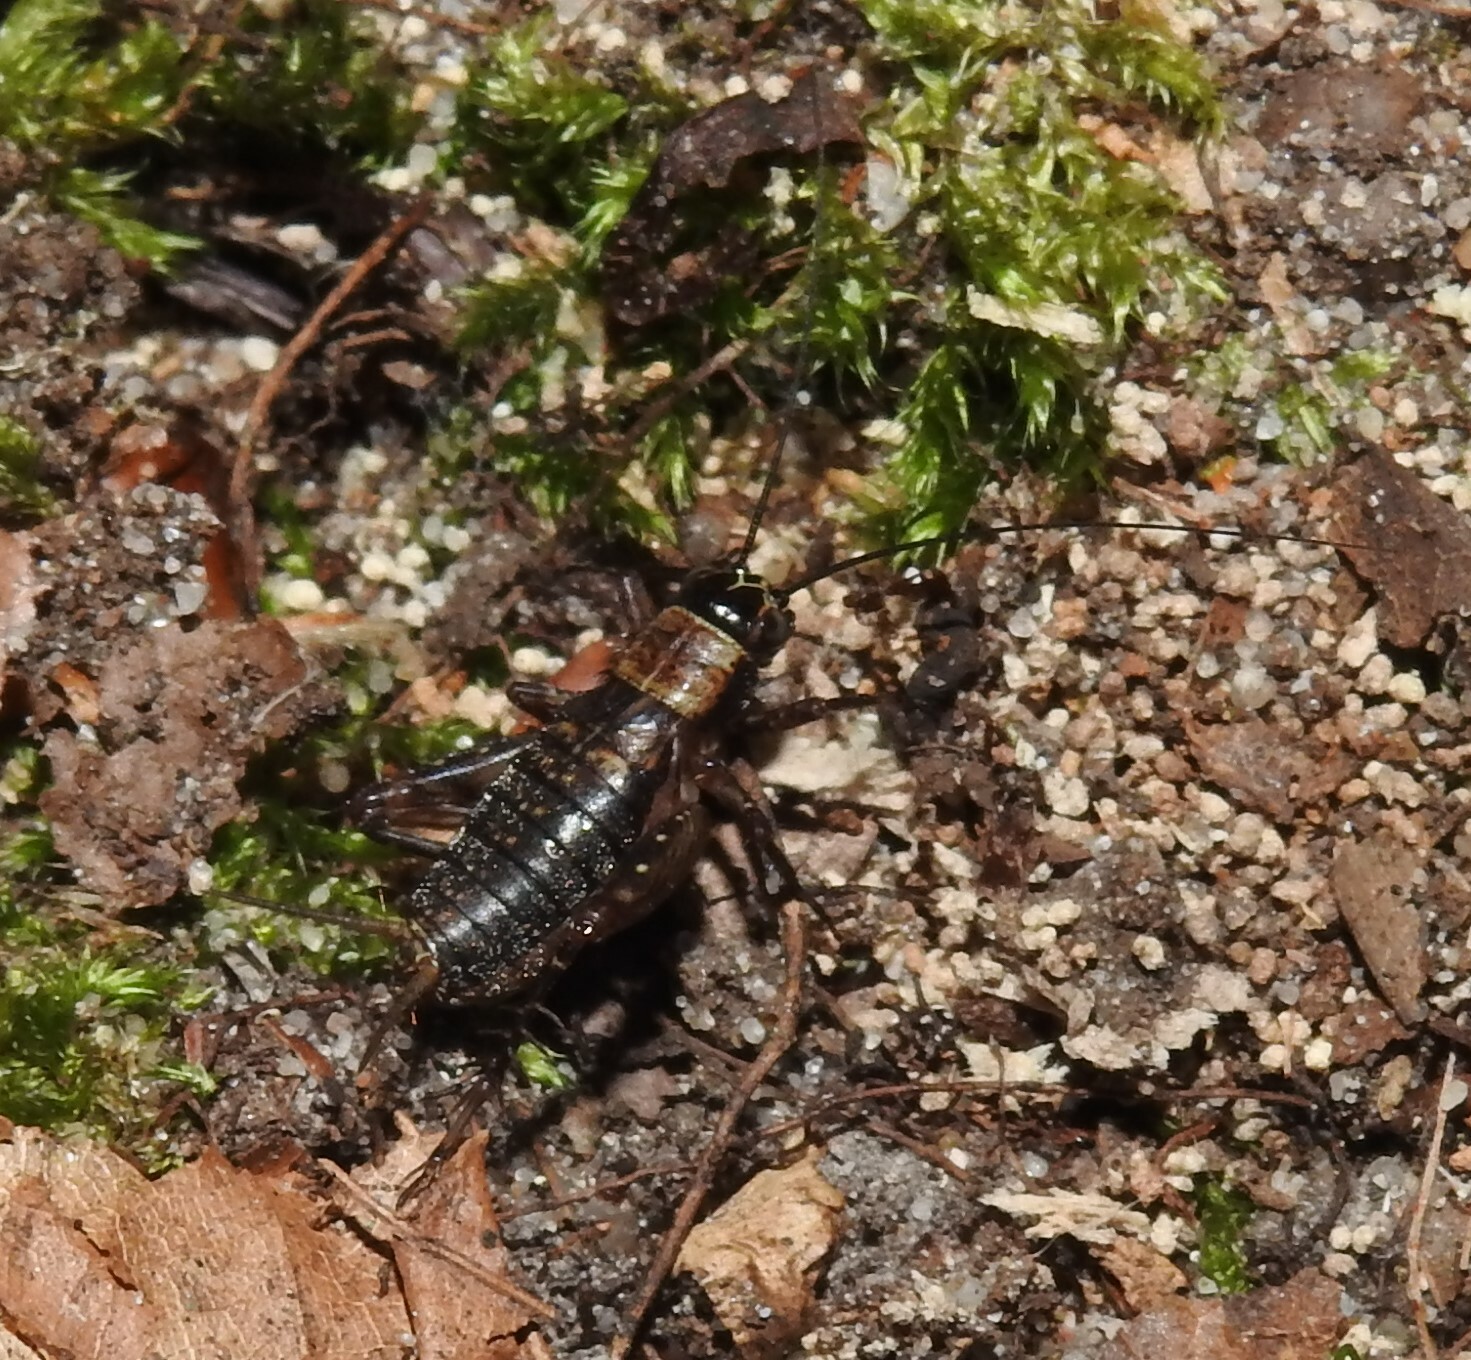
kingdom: Animalia
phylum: Arthropoda
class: Insecta
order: Orthoptera
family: Trigonidiidae
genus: Nemobius
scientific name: Nemobius sylvestris
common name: Wood-cricket
